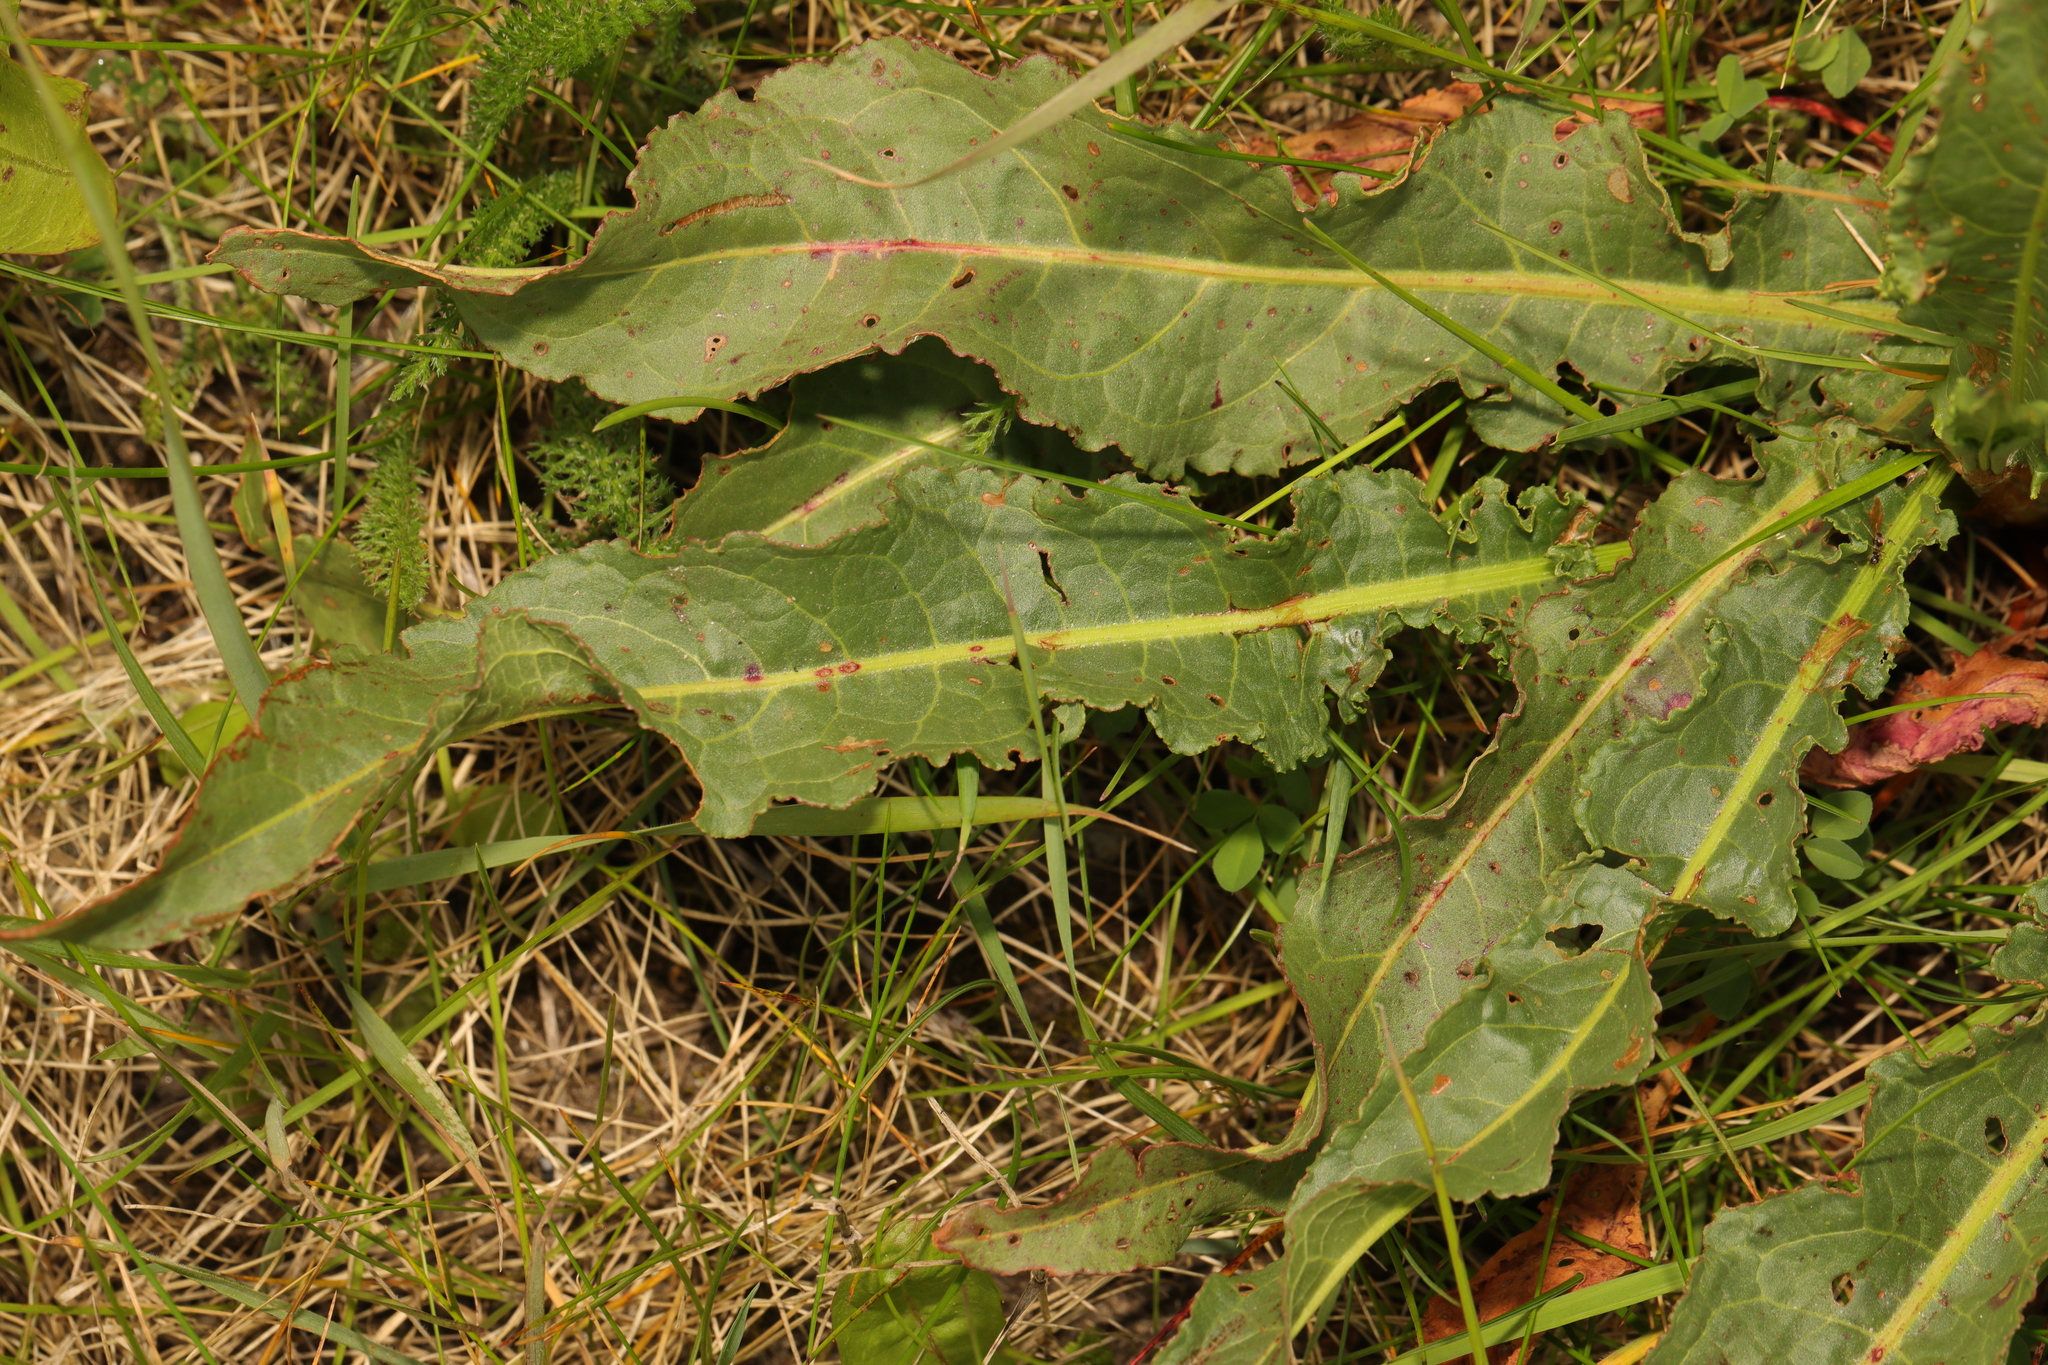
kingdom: Plantae
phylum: Tracheophyta
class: Magnoliopsida
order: Caryophyllales
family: Polygonaceae
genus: Rumex
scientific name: Rumex crispus
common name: Curled dock
